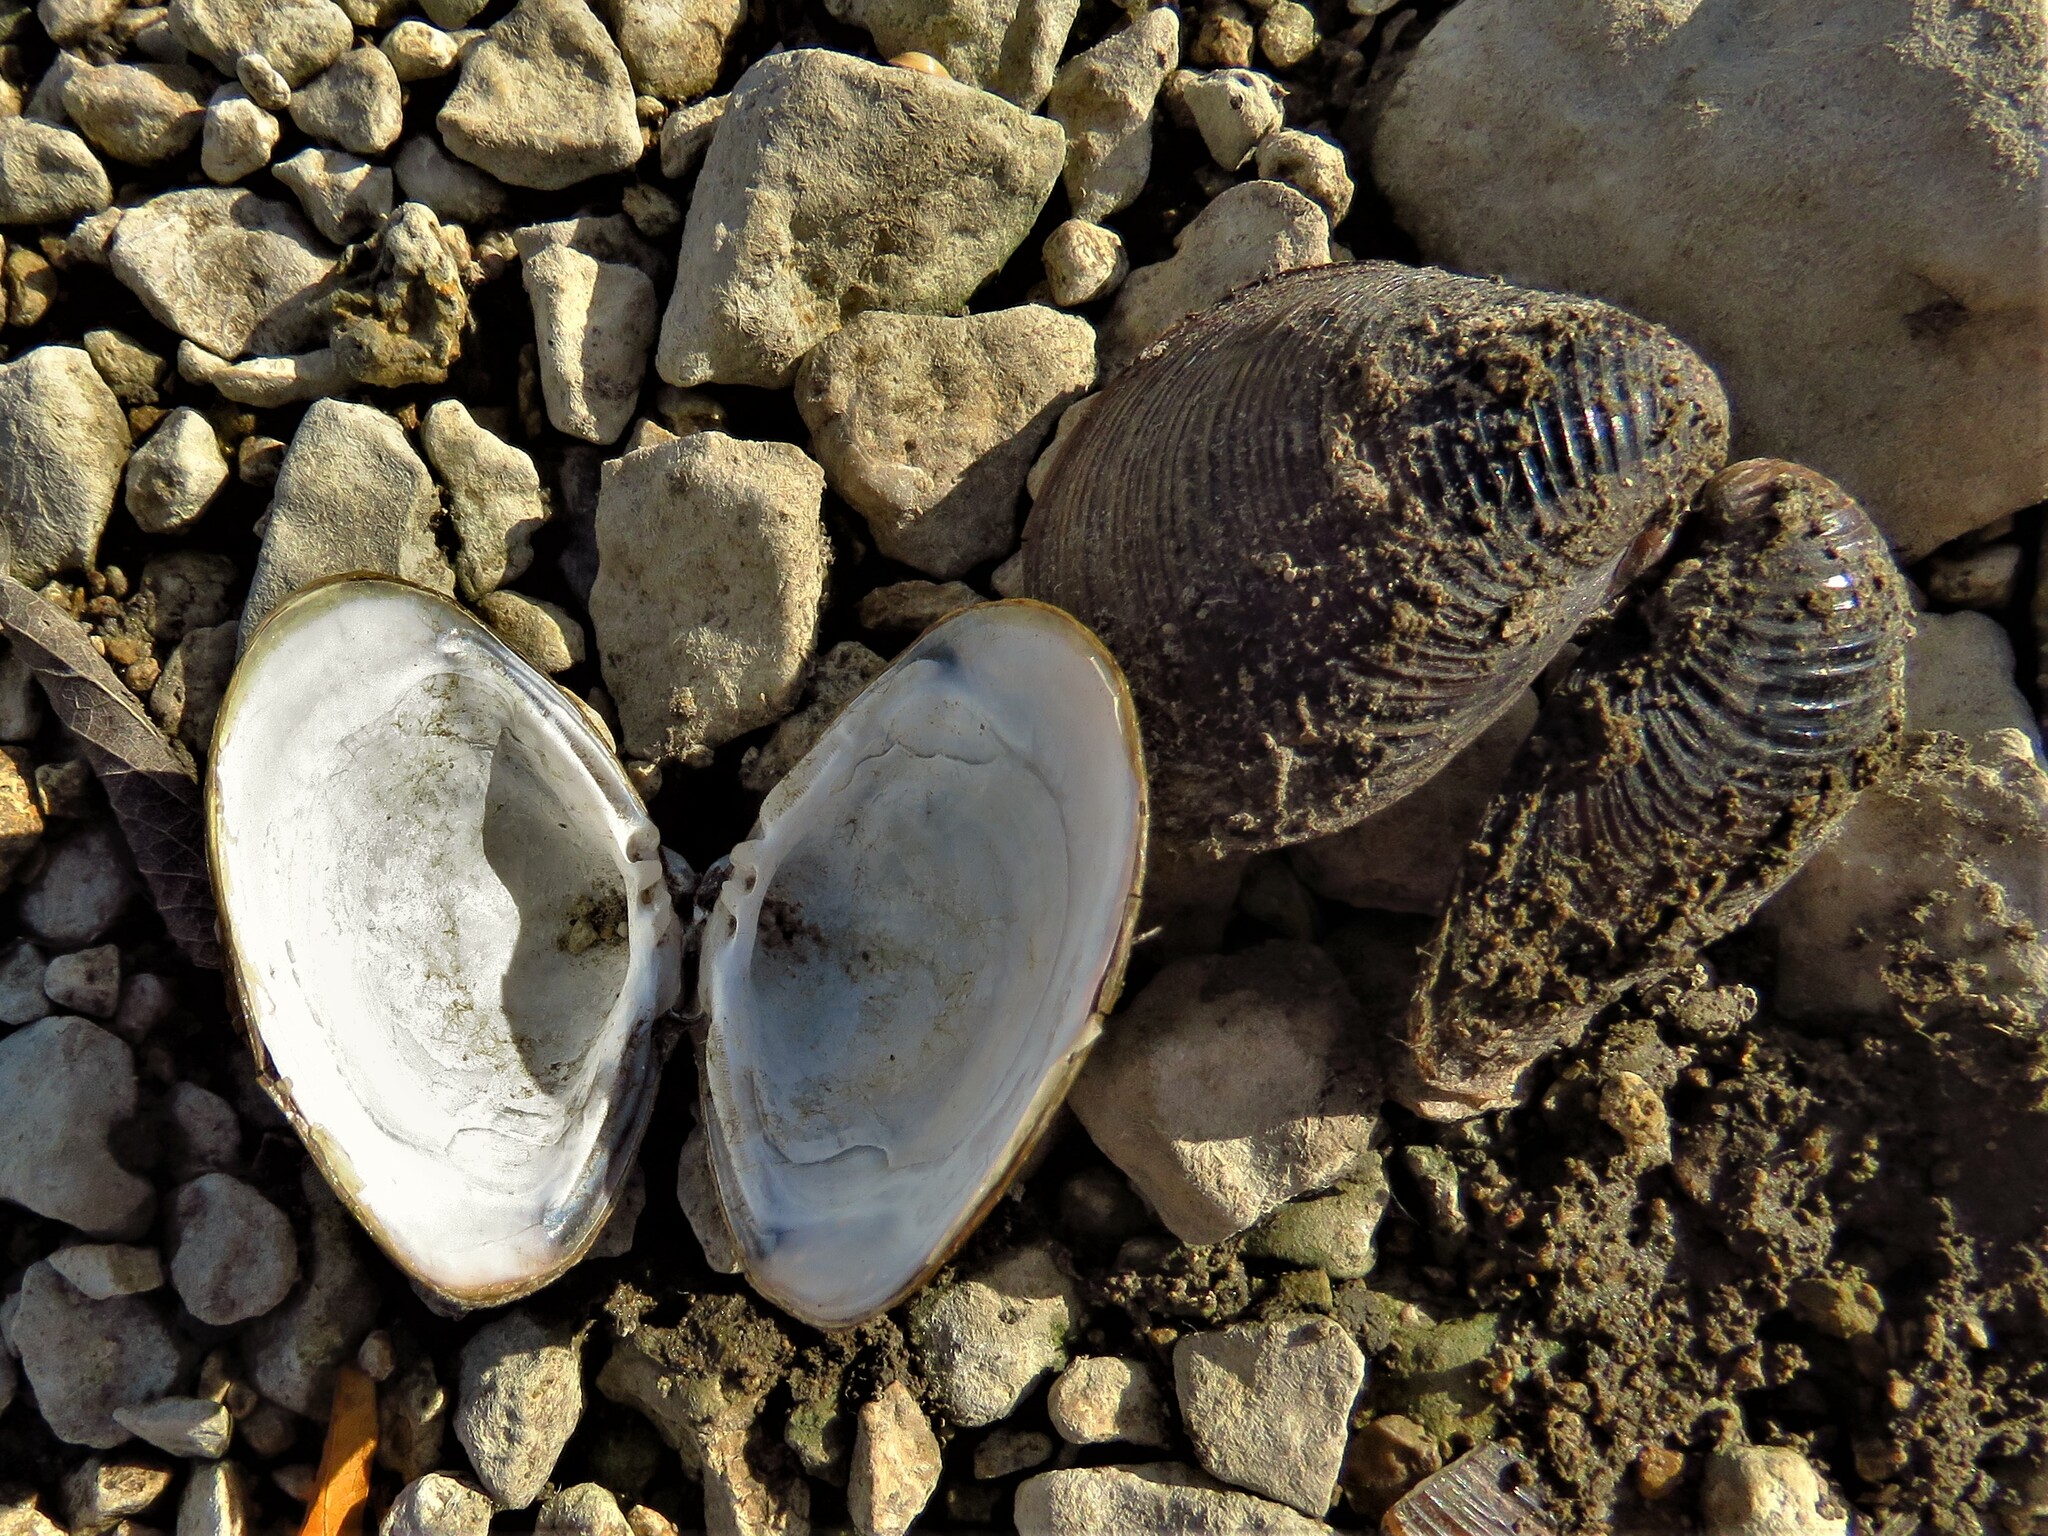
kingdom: Animalia
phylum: Mollusca
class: Bivalvia
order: Venerida
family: Cyrenidae
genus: Corbicula
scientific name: Corbicula fluminea
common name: Asian clam
